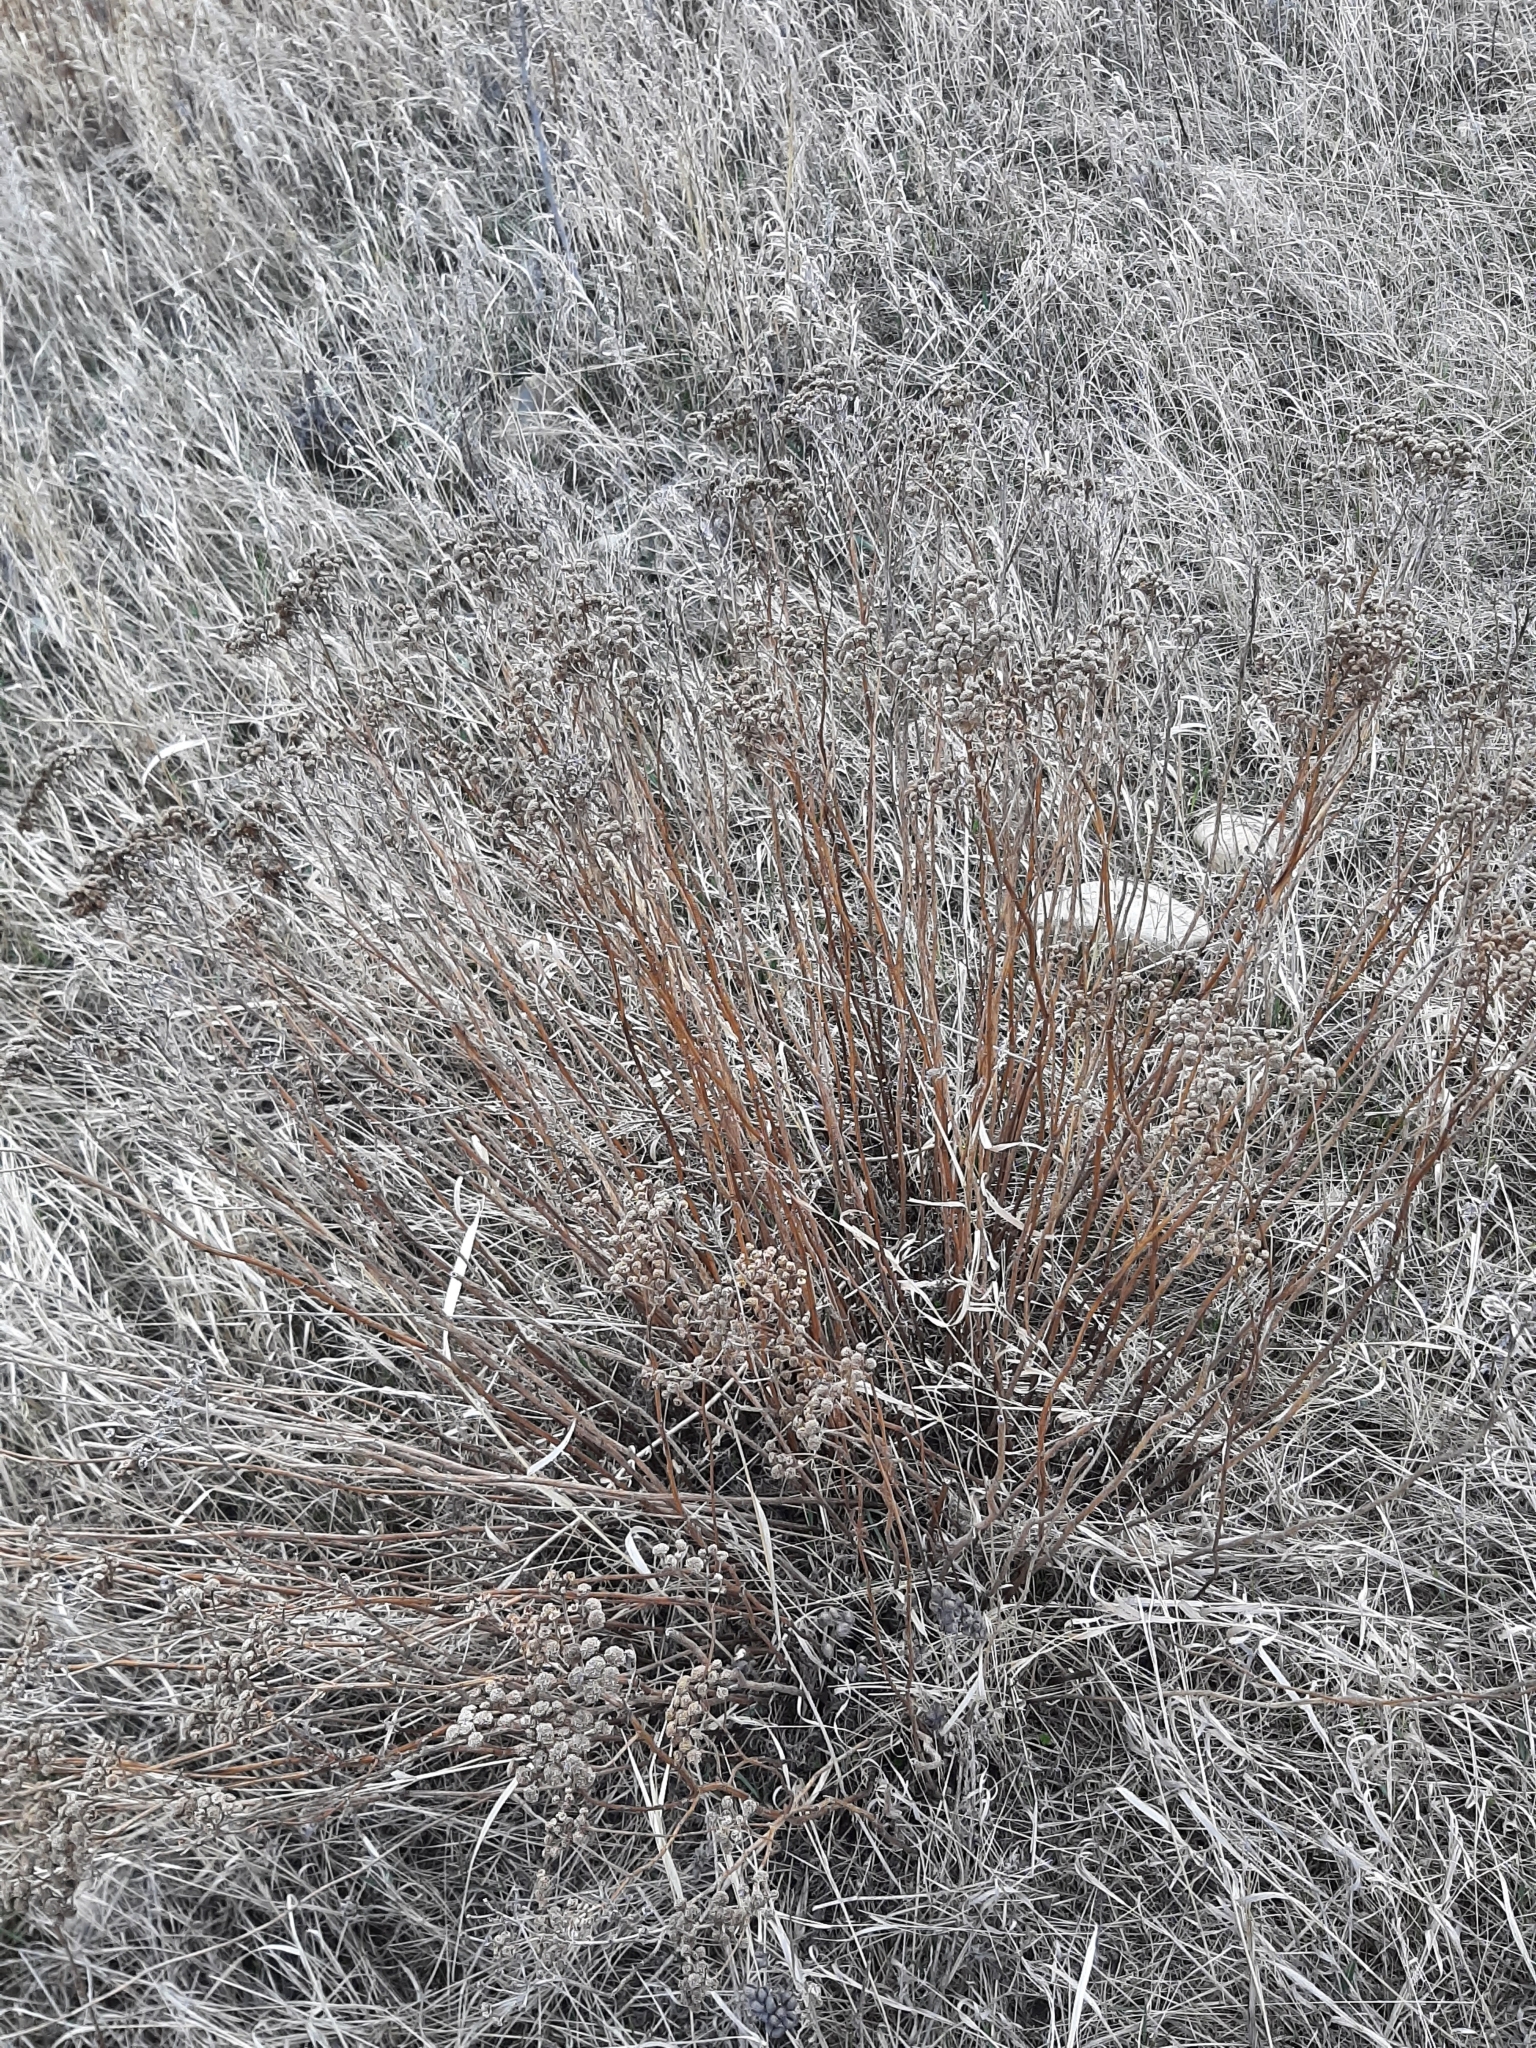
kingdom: Plantae
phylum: Tracheophyta
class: Magnoliopsida
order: Asterales
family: Asteraceae
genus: Tanacetum
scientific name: Tanacetum vulgare
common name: Common tansy
